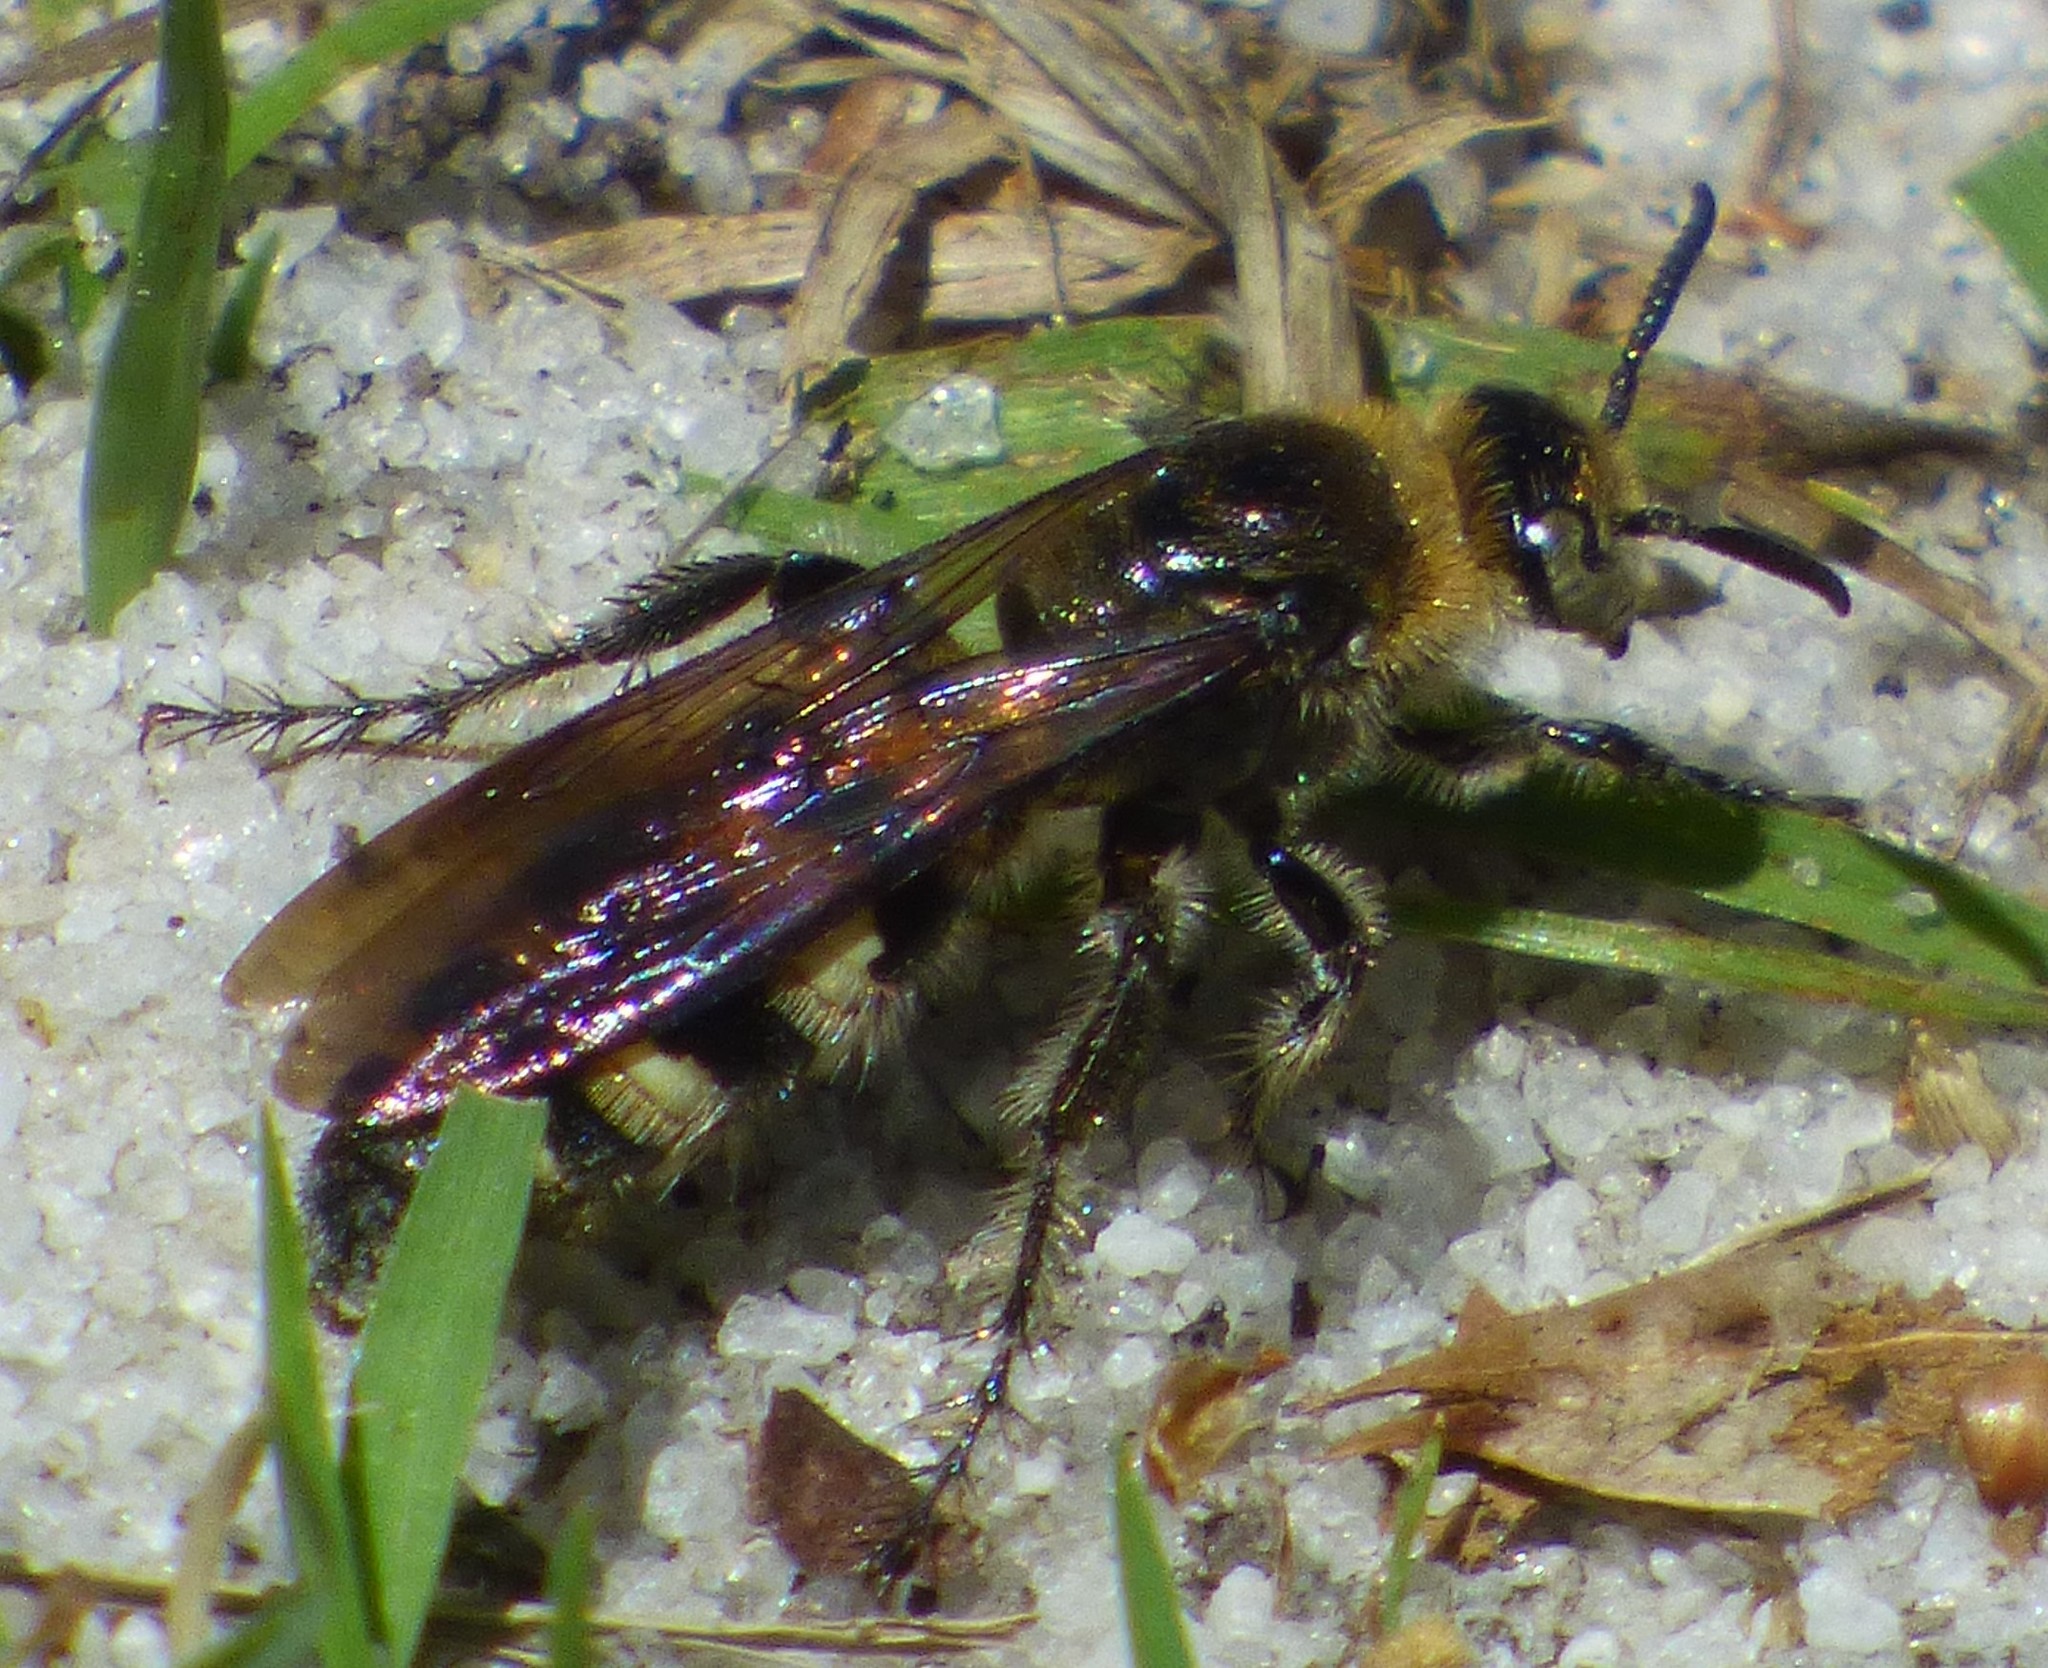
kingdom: Animalia
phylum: Arthropoda
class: Insecta
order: Hymenoptera
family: Scoliidae
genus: Dielis
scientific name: Dielis
